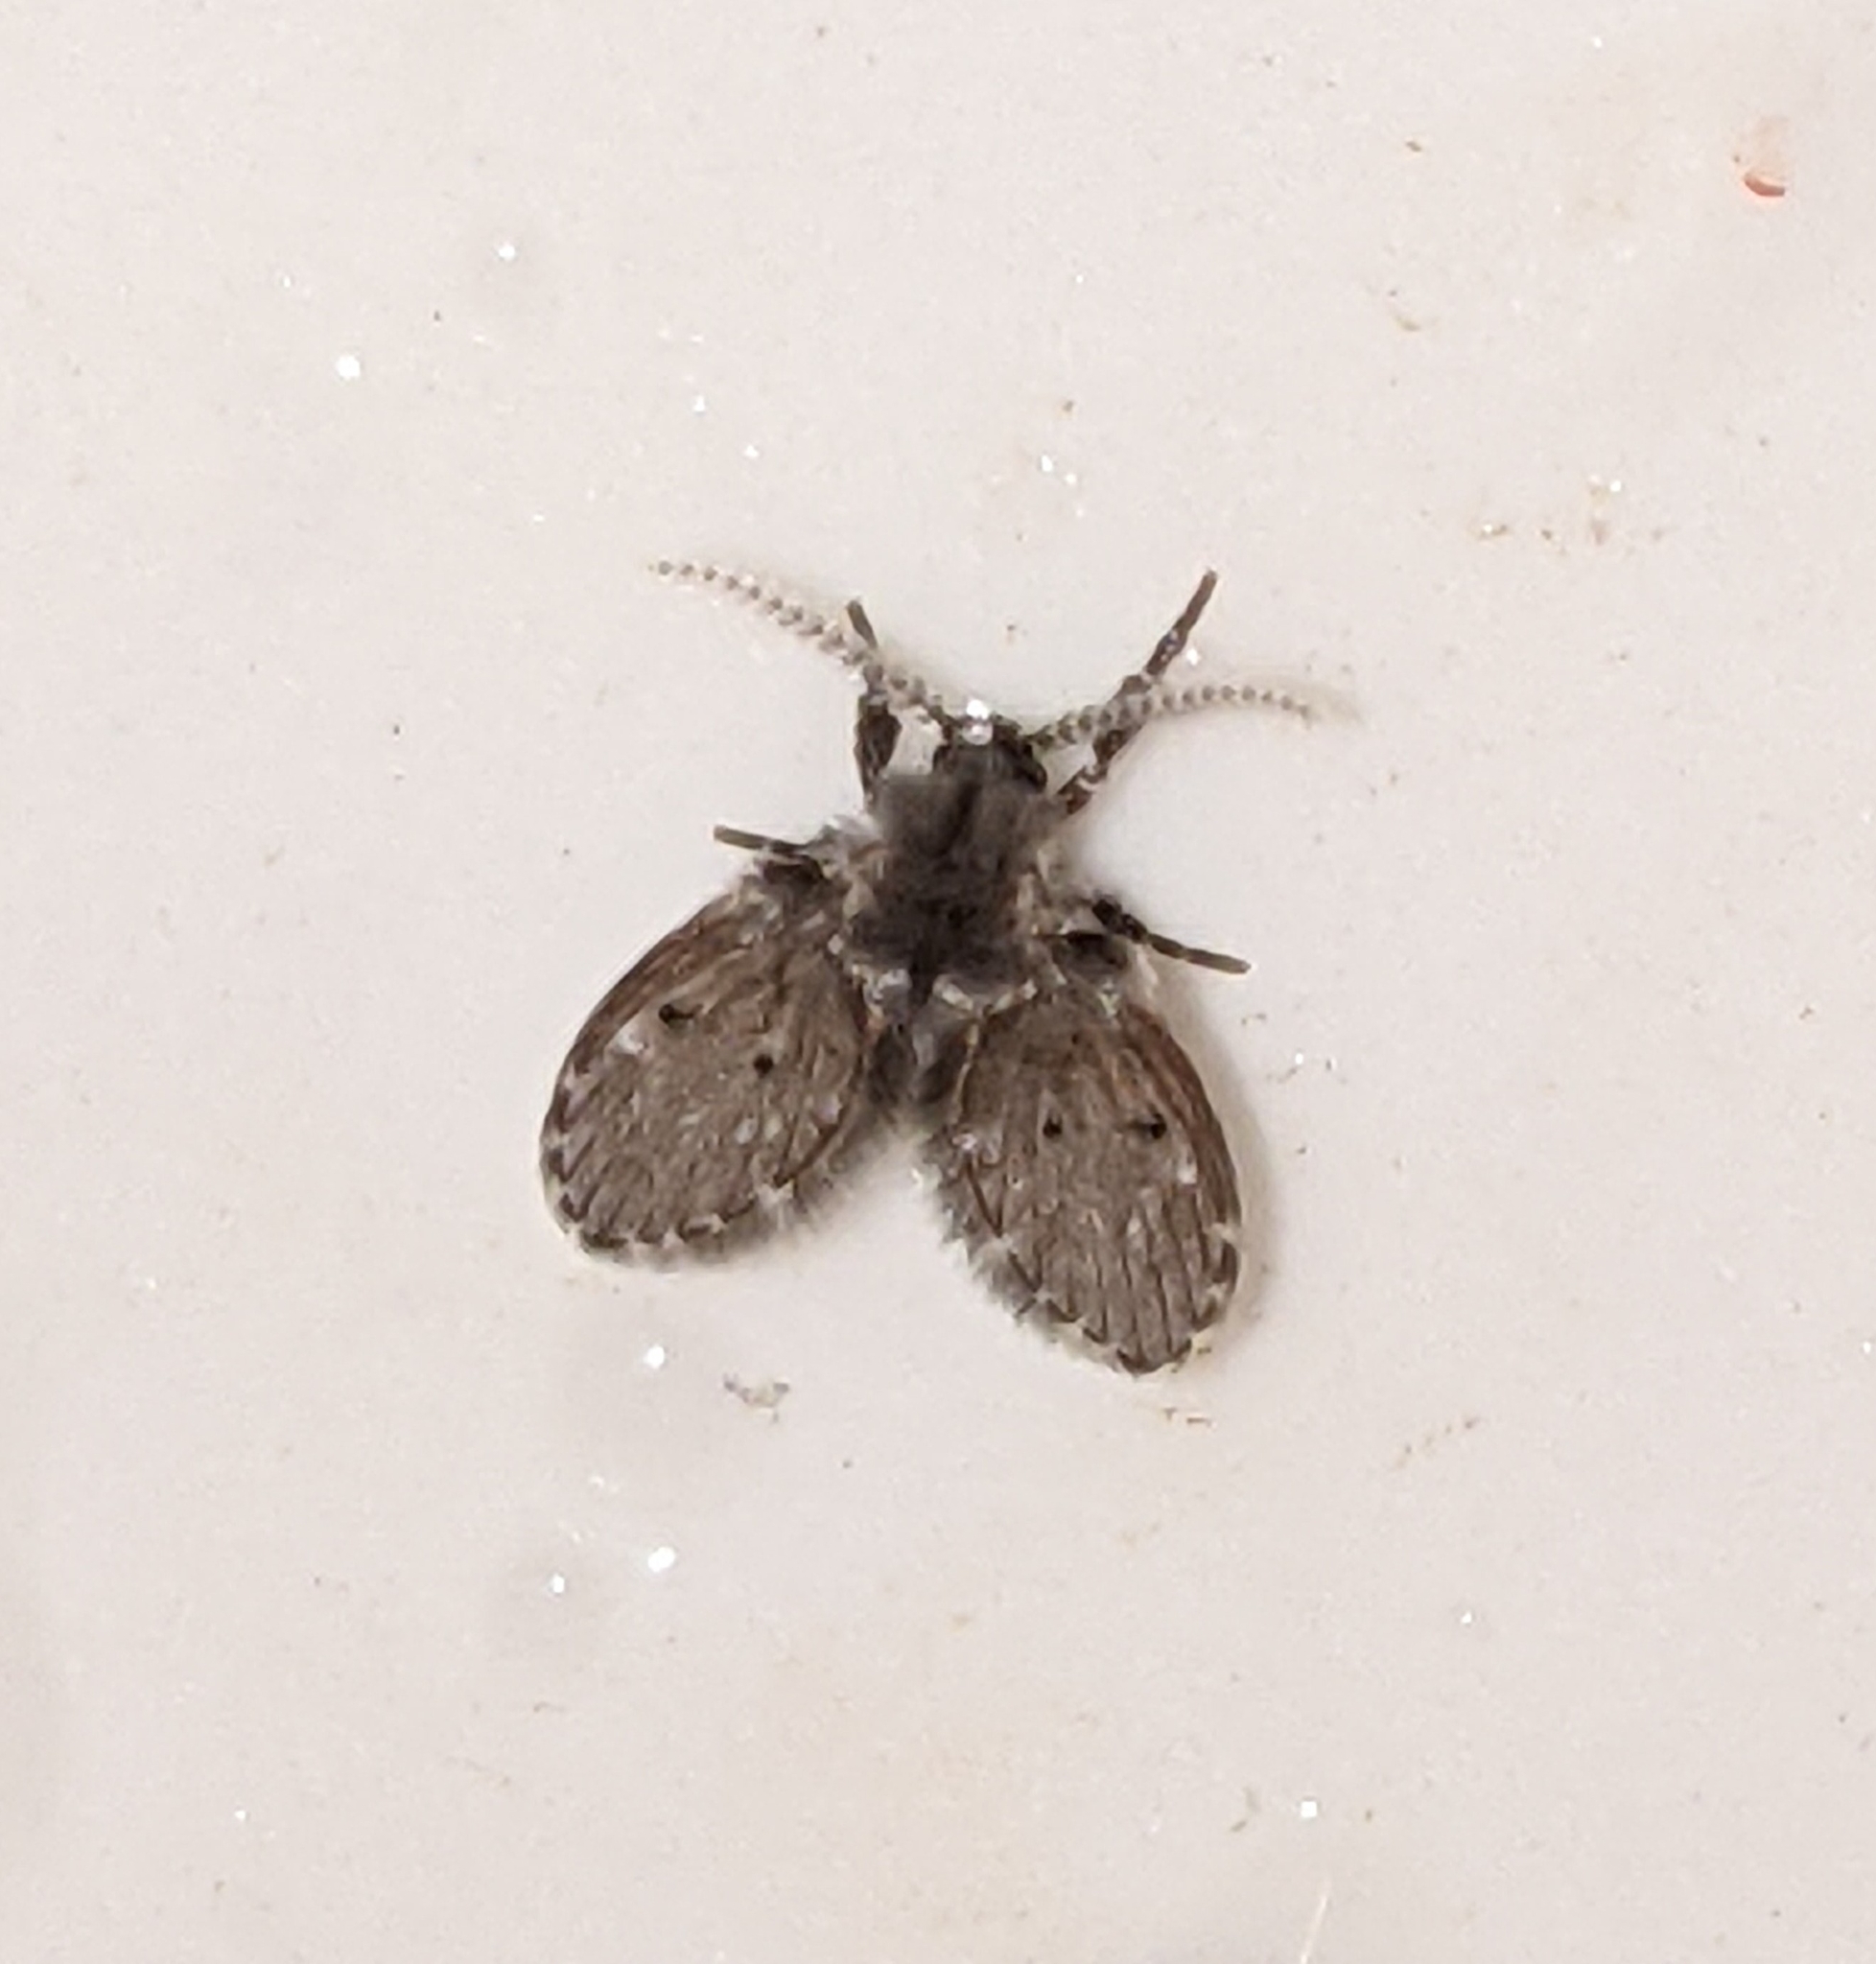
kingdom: Animalia
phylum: Arthropoda
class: Insecta
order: Diptera
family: Psychodidae
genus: Clogmia
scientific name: Clogmia albipunctatus
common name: White-spotted moth fly
